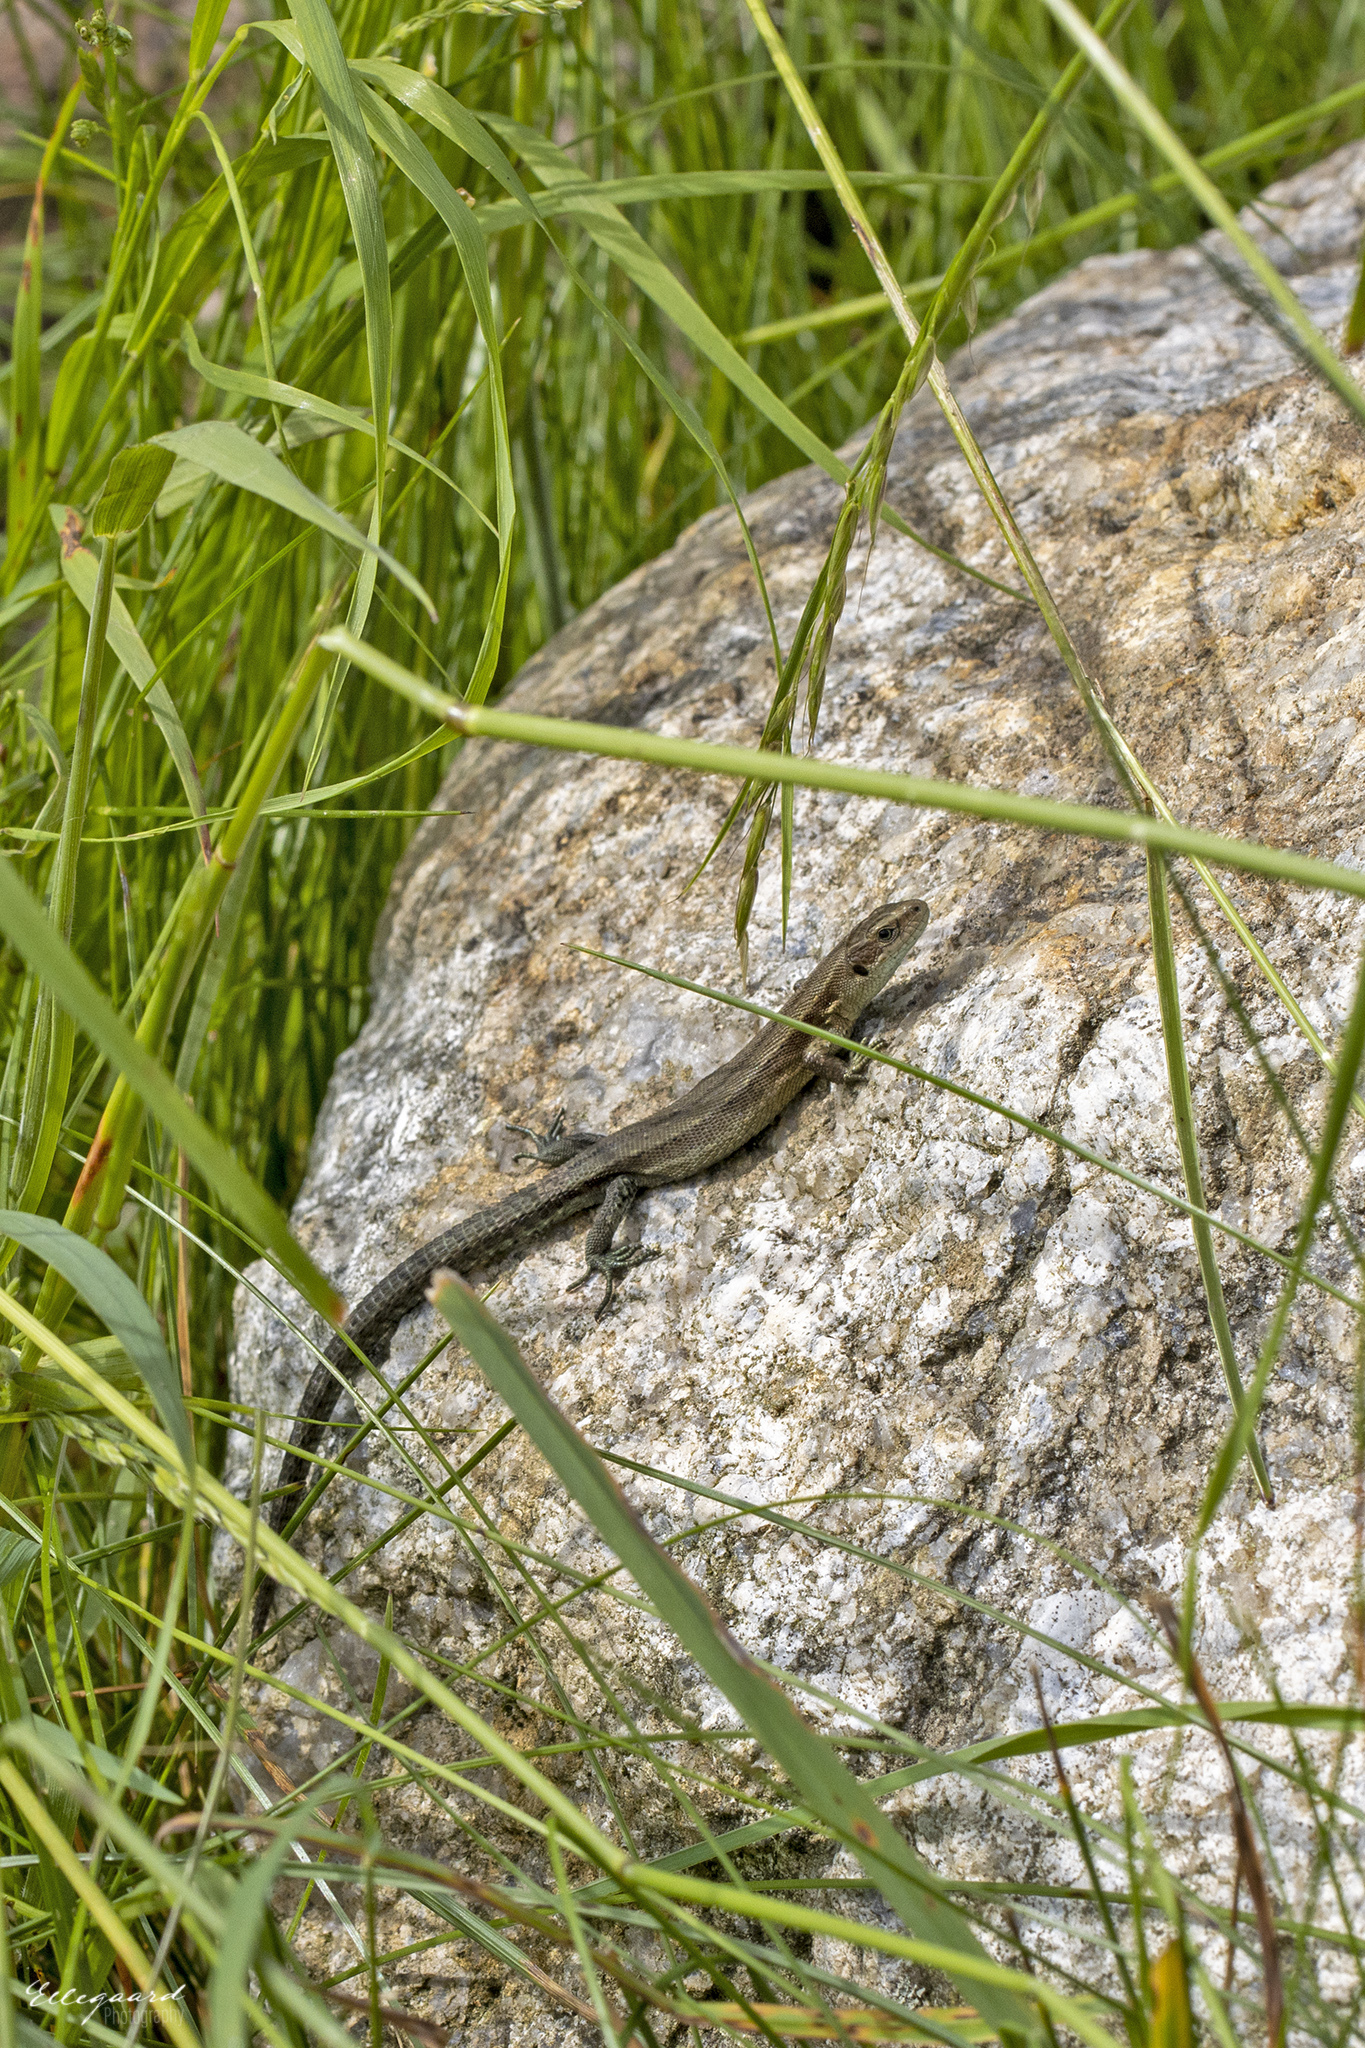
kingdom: Animalia
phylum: Chordata
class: Squamata
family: Lacertidae
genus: Zootoca
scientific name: Zootoca vivipara
